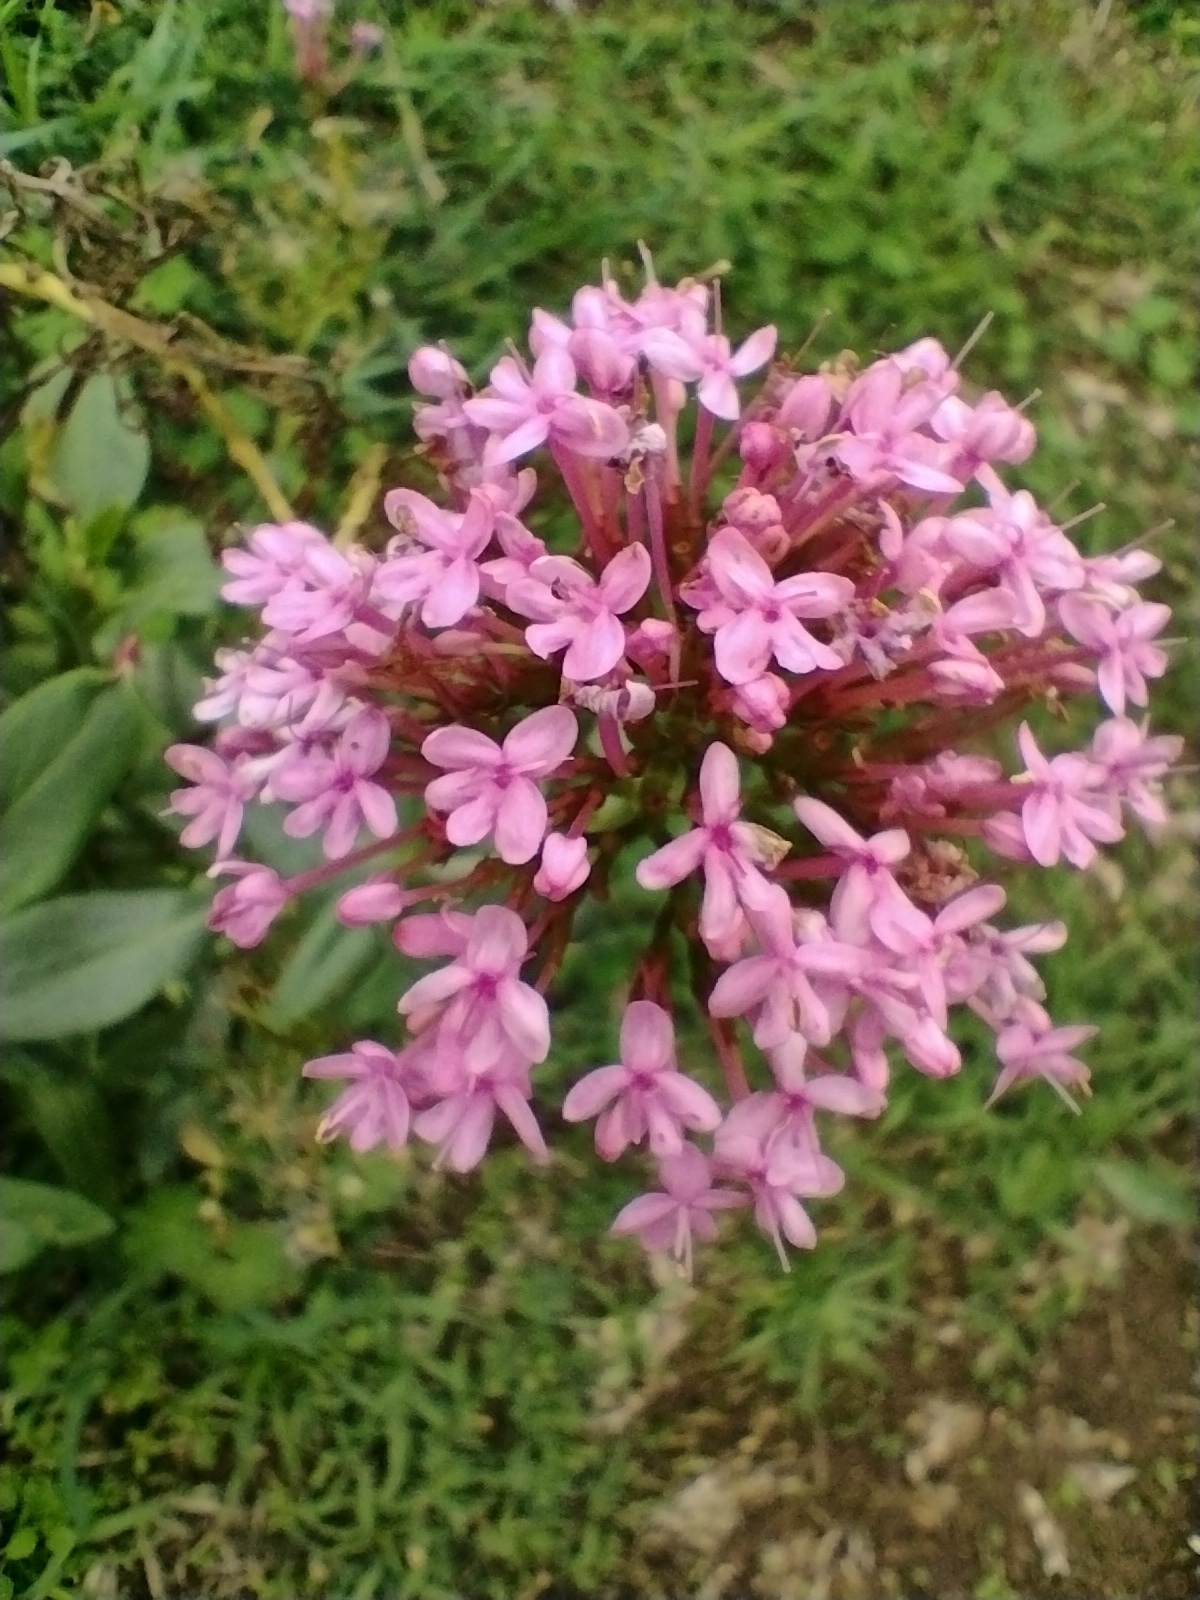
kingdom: Plantae
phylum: Tracheophyta
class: Magnoliopsida
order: Dipsacales
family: Caprifoliaceae
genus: Centranthus
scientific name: Centranthus ruber
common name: Red valerian
